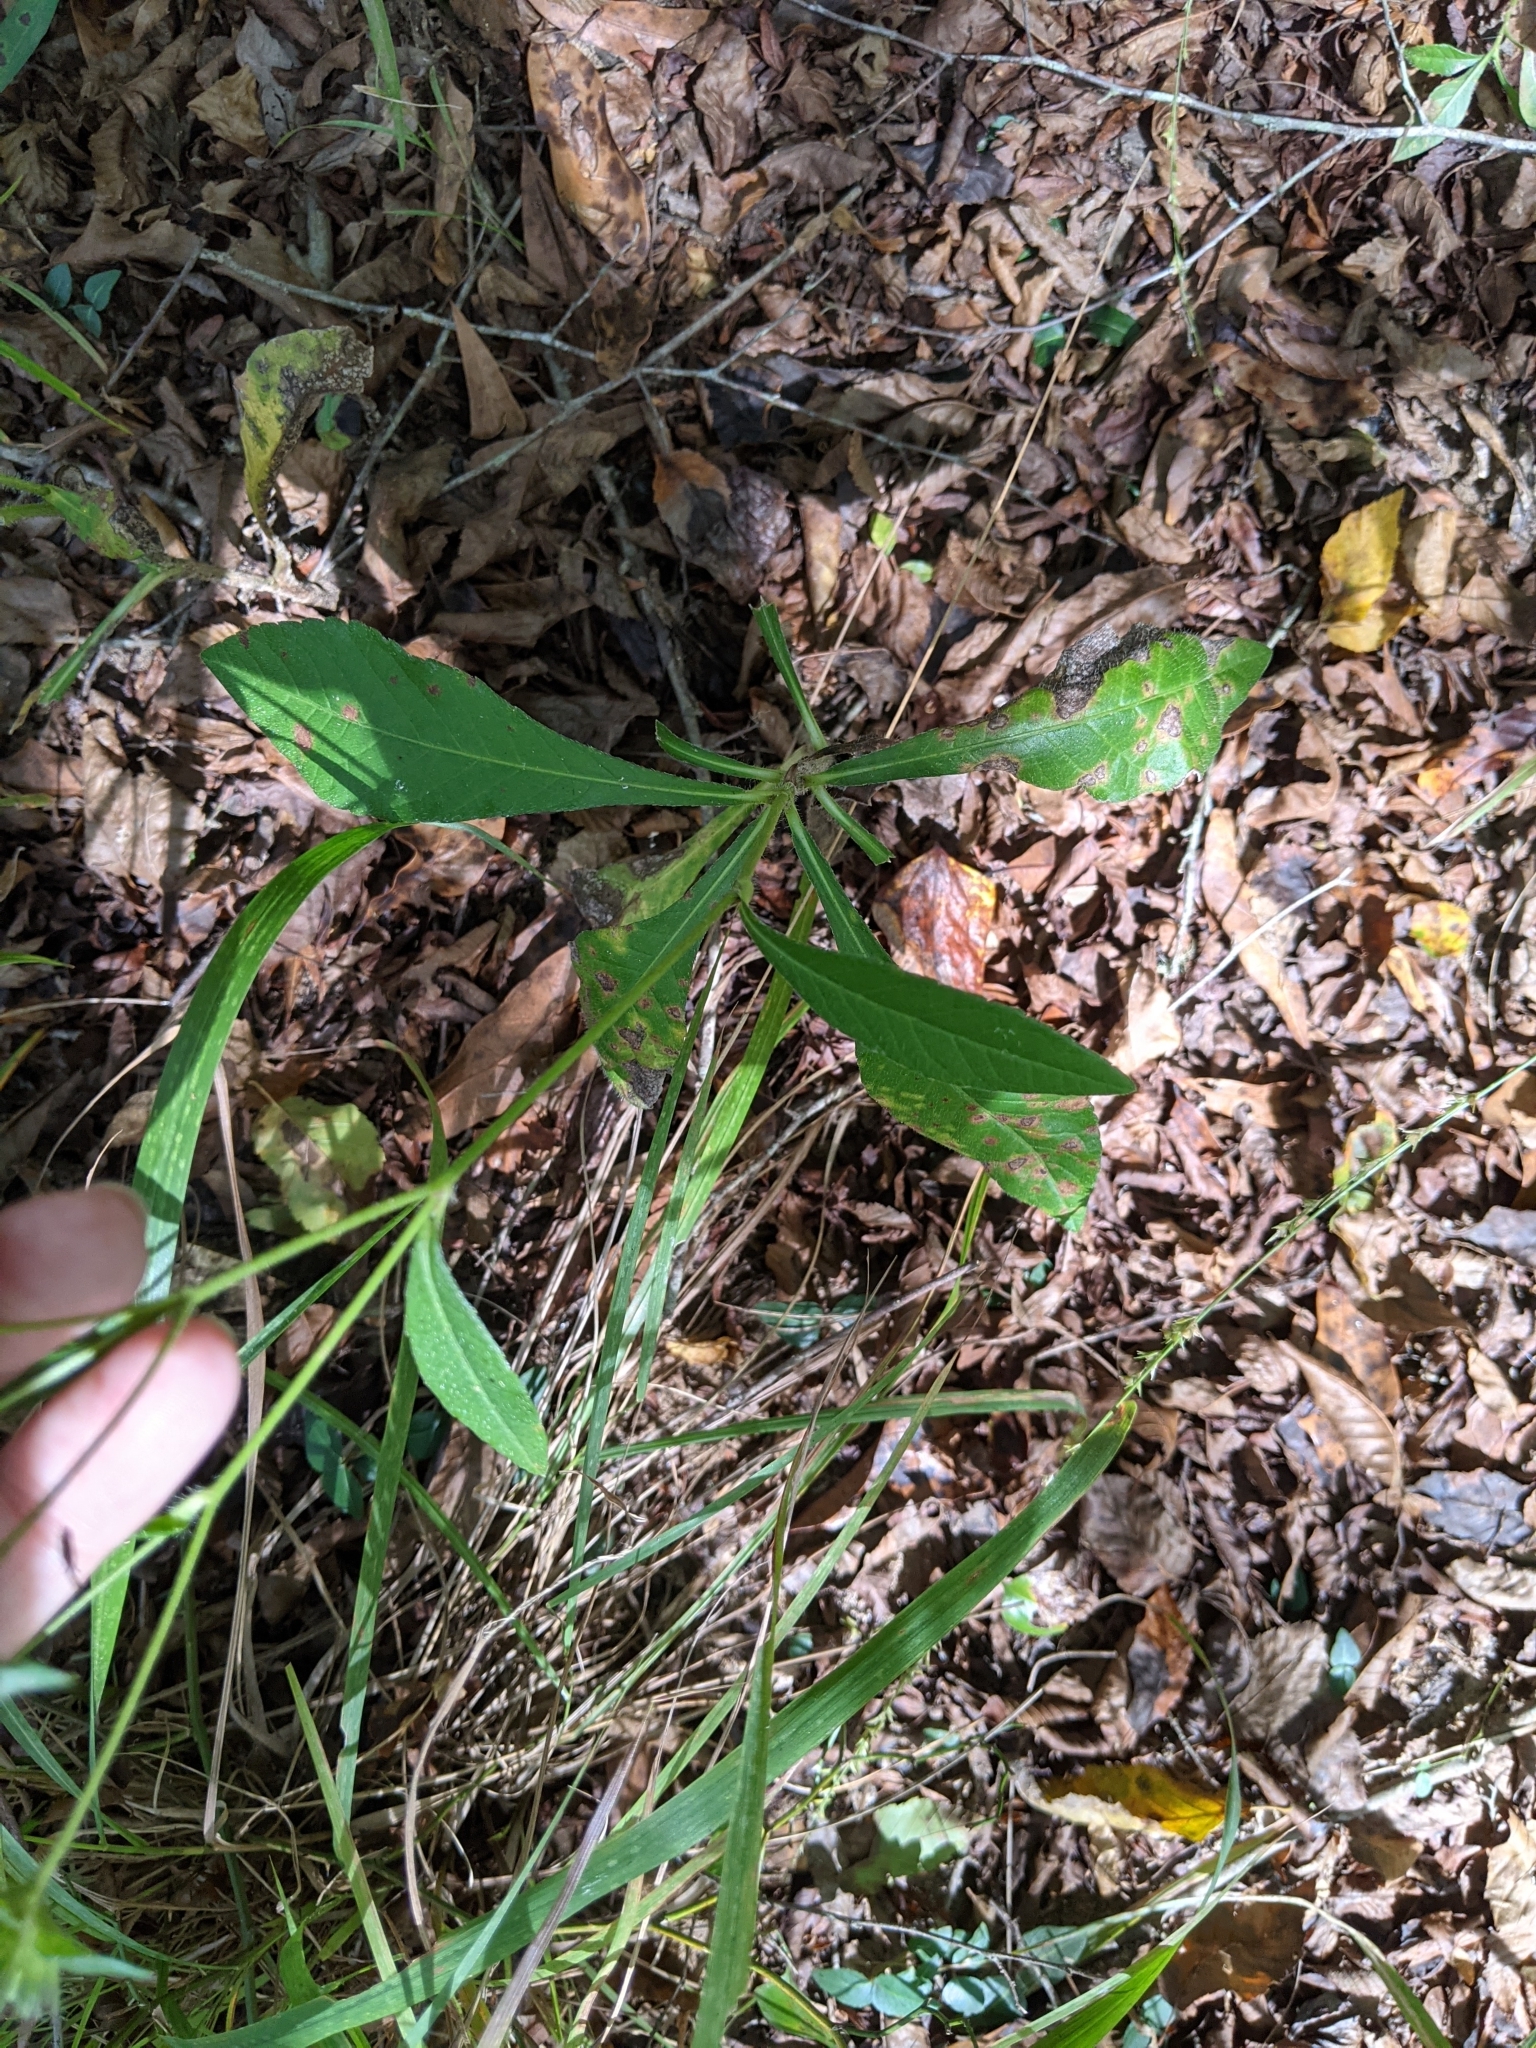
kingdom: Plantae
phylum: Tracheophyta
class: Magnoliopsida
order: Asterales
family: Asteraceae
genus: Elephantopus
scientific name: Elephantopus carolinianus
